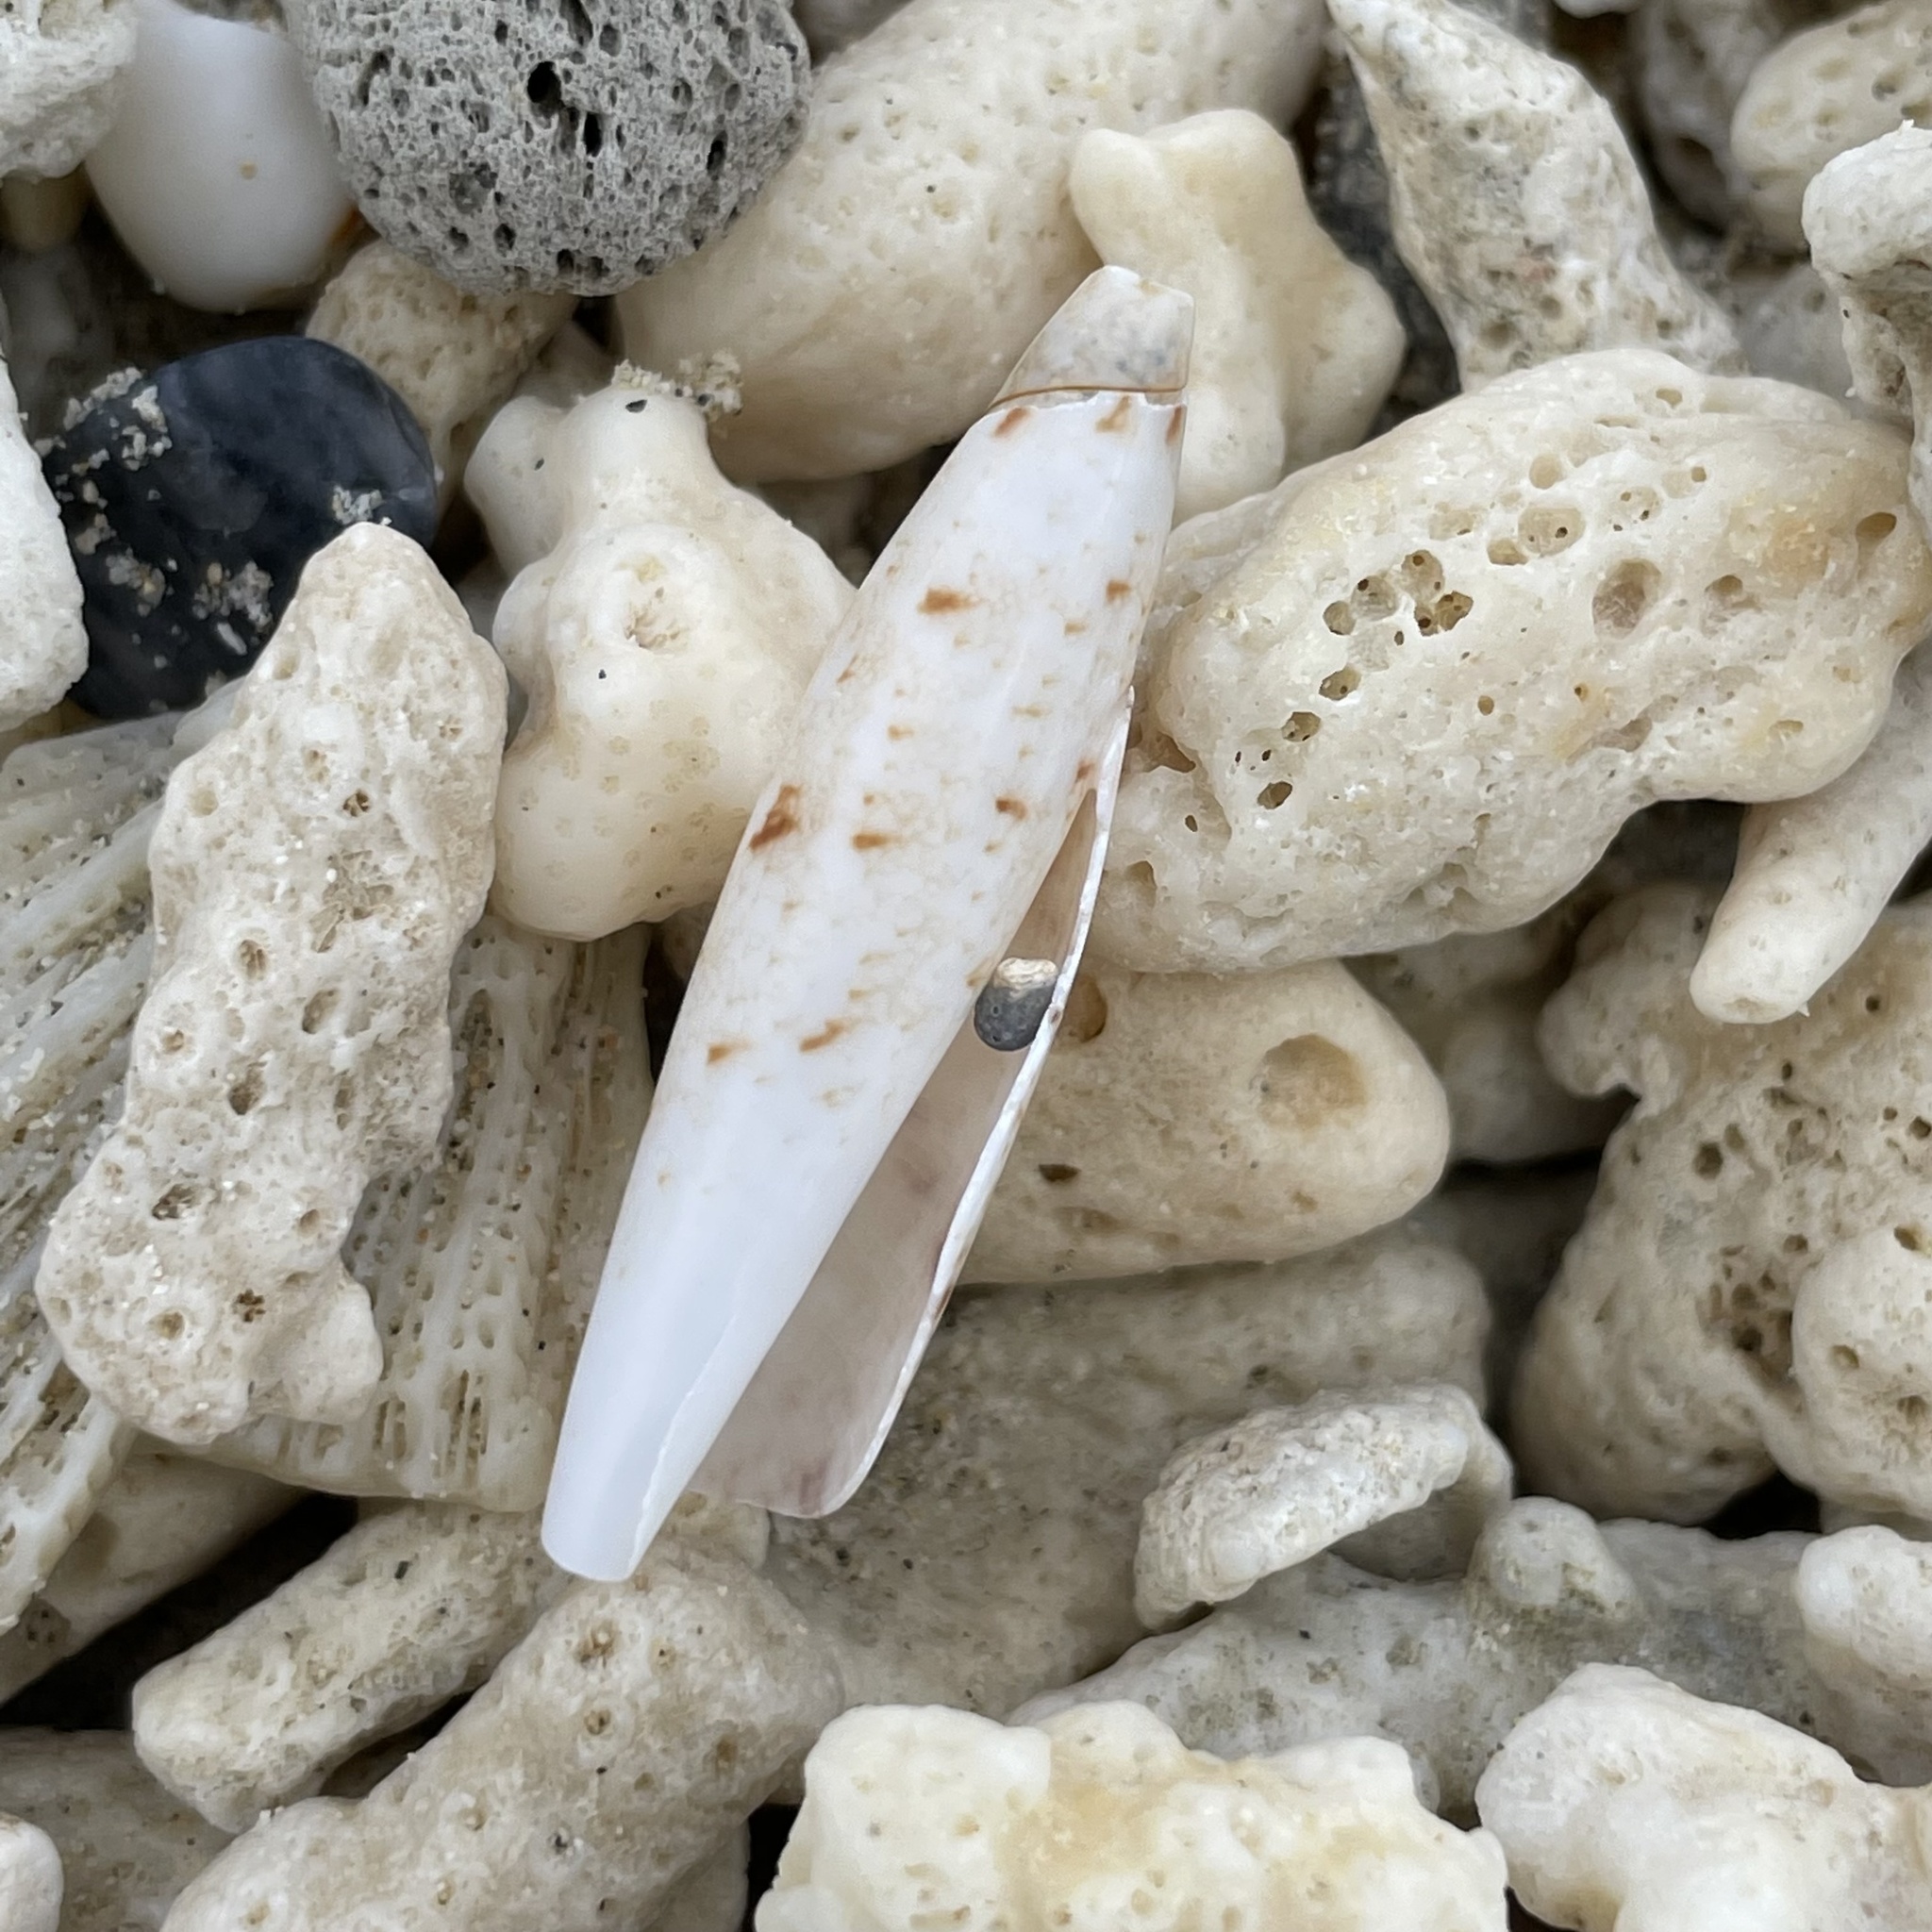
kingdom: Animalia
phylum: Mollusca
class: Gastropoda
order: Littorinimorpha
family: Seraphsidae
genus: Terebellum
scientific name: Terebellum terebellum
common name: Little auger
